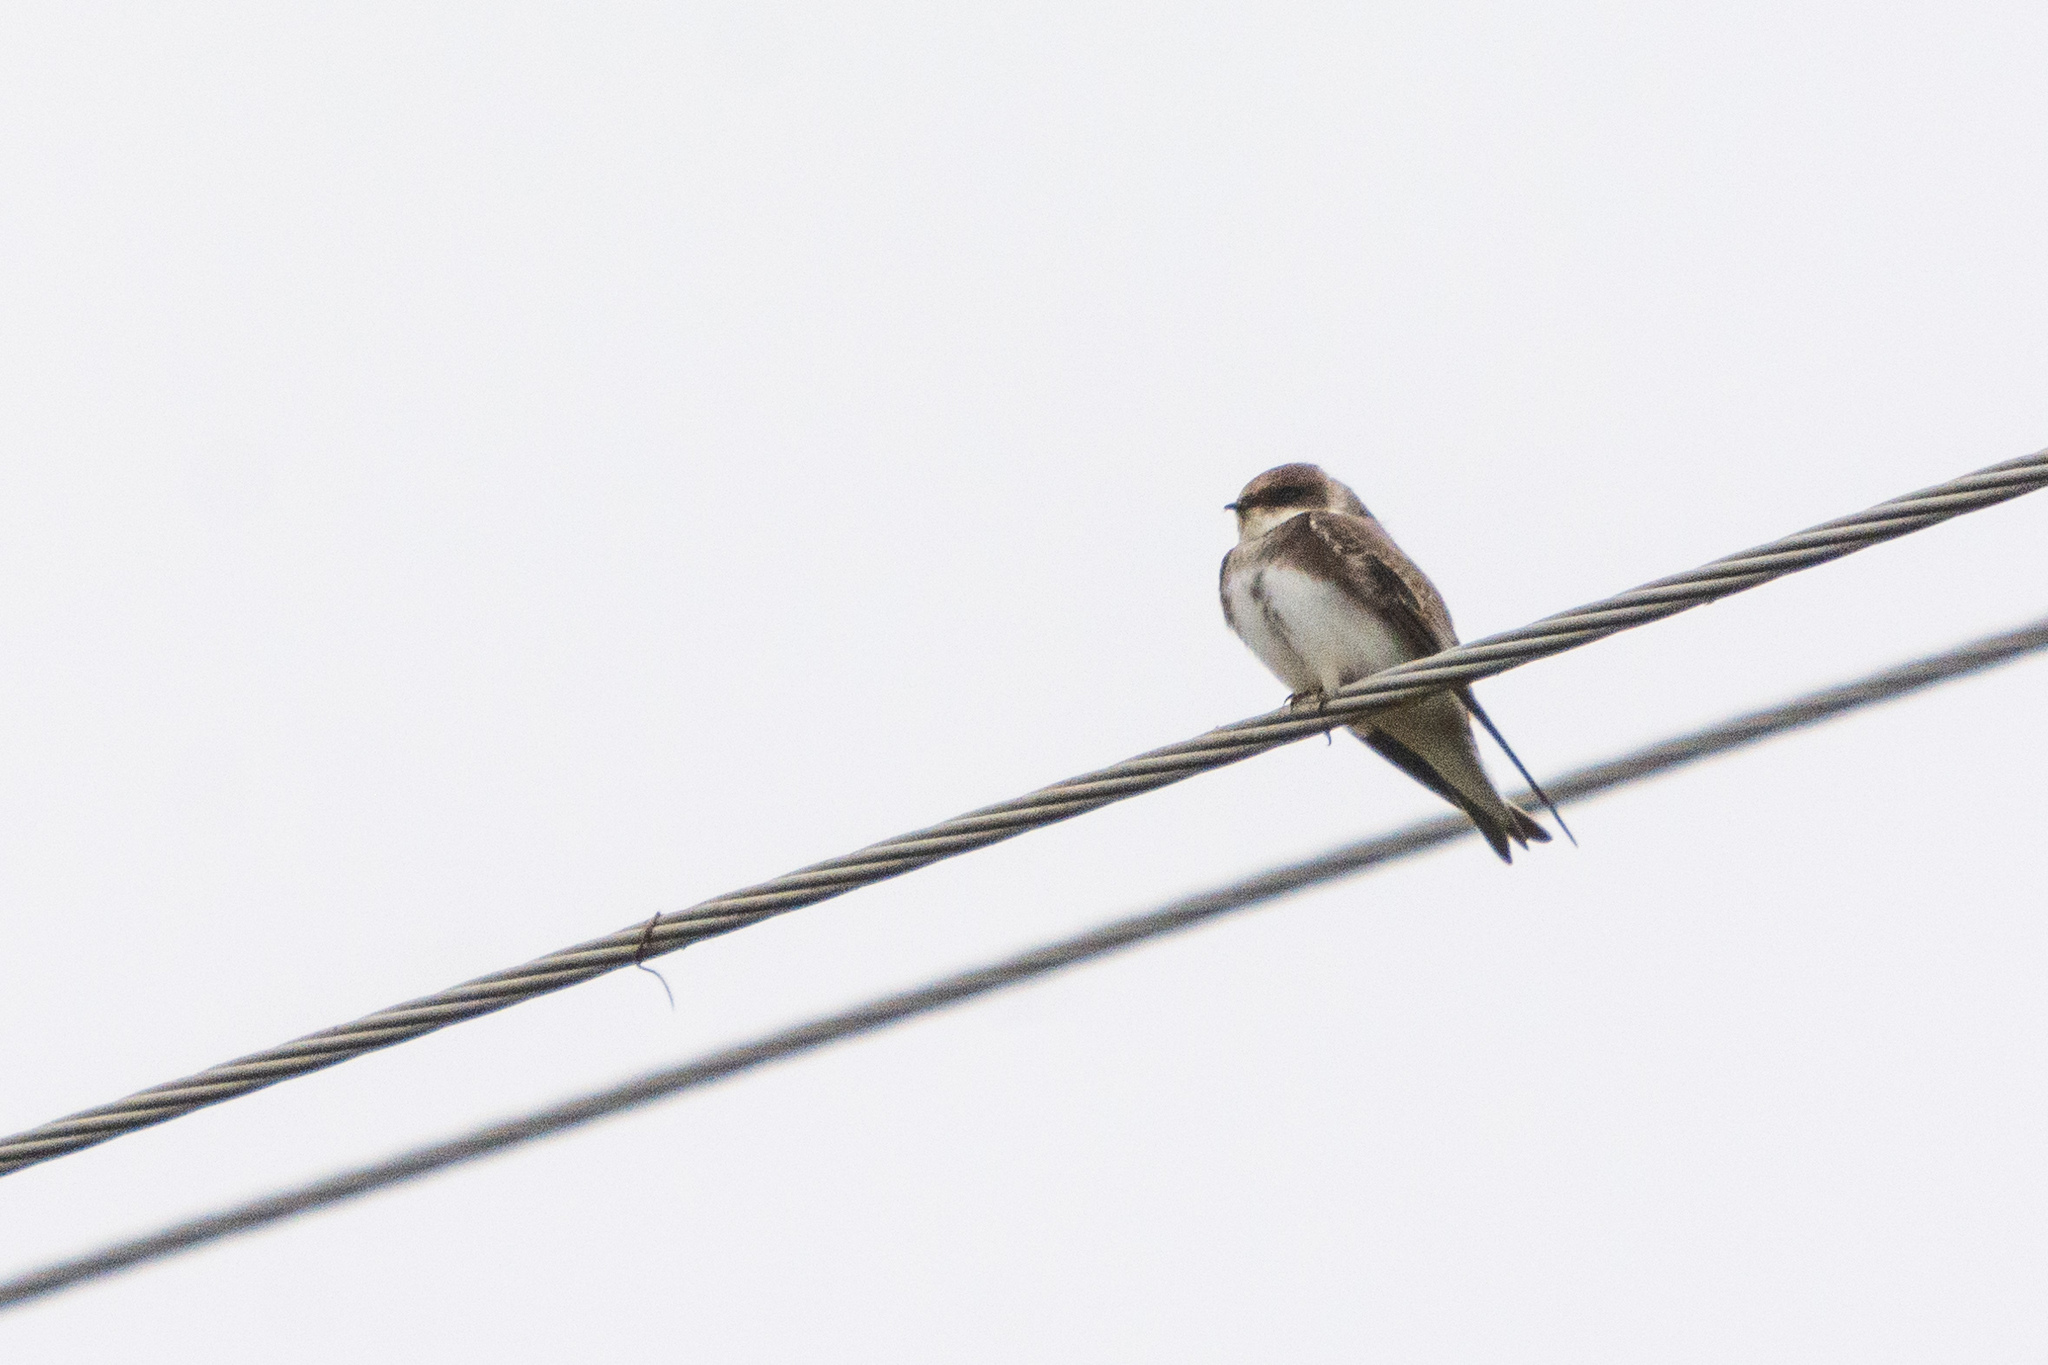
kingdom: Animalia
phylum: Chordata
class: Aves
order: Passeriformes
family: Hirundinidae
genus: Riparia
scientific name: Riparia riparia
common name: Sand martin
